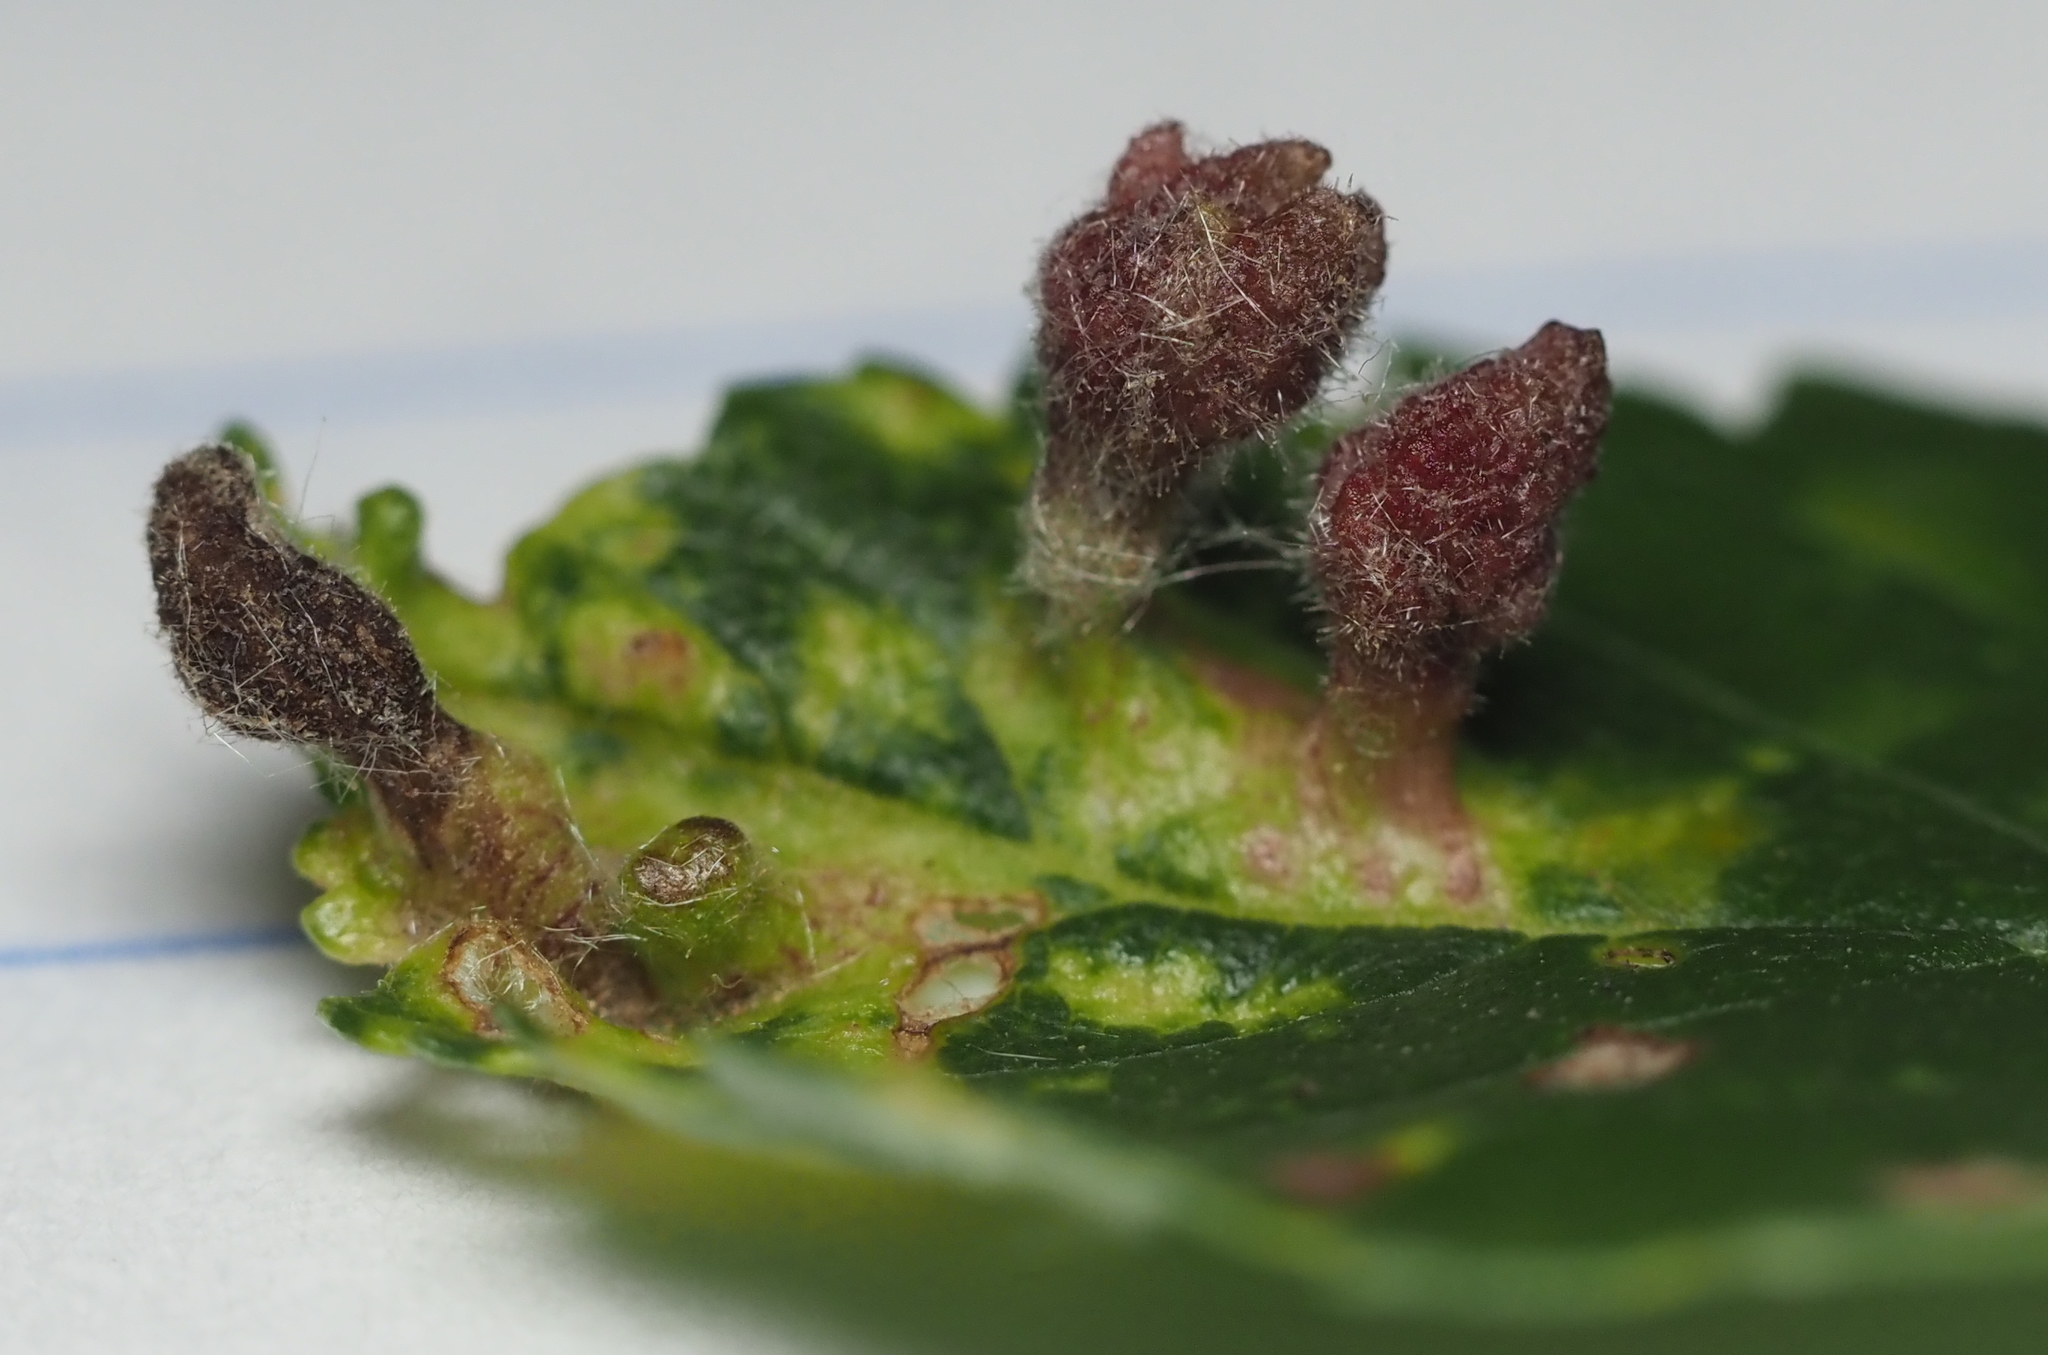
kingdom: Animalia
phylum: Arthropoda
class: Insecta
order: Hemiptera
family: Aphididae
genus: Tetraneura
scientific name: Tetraneura nigriabdominalis
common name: Aphid
